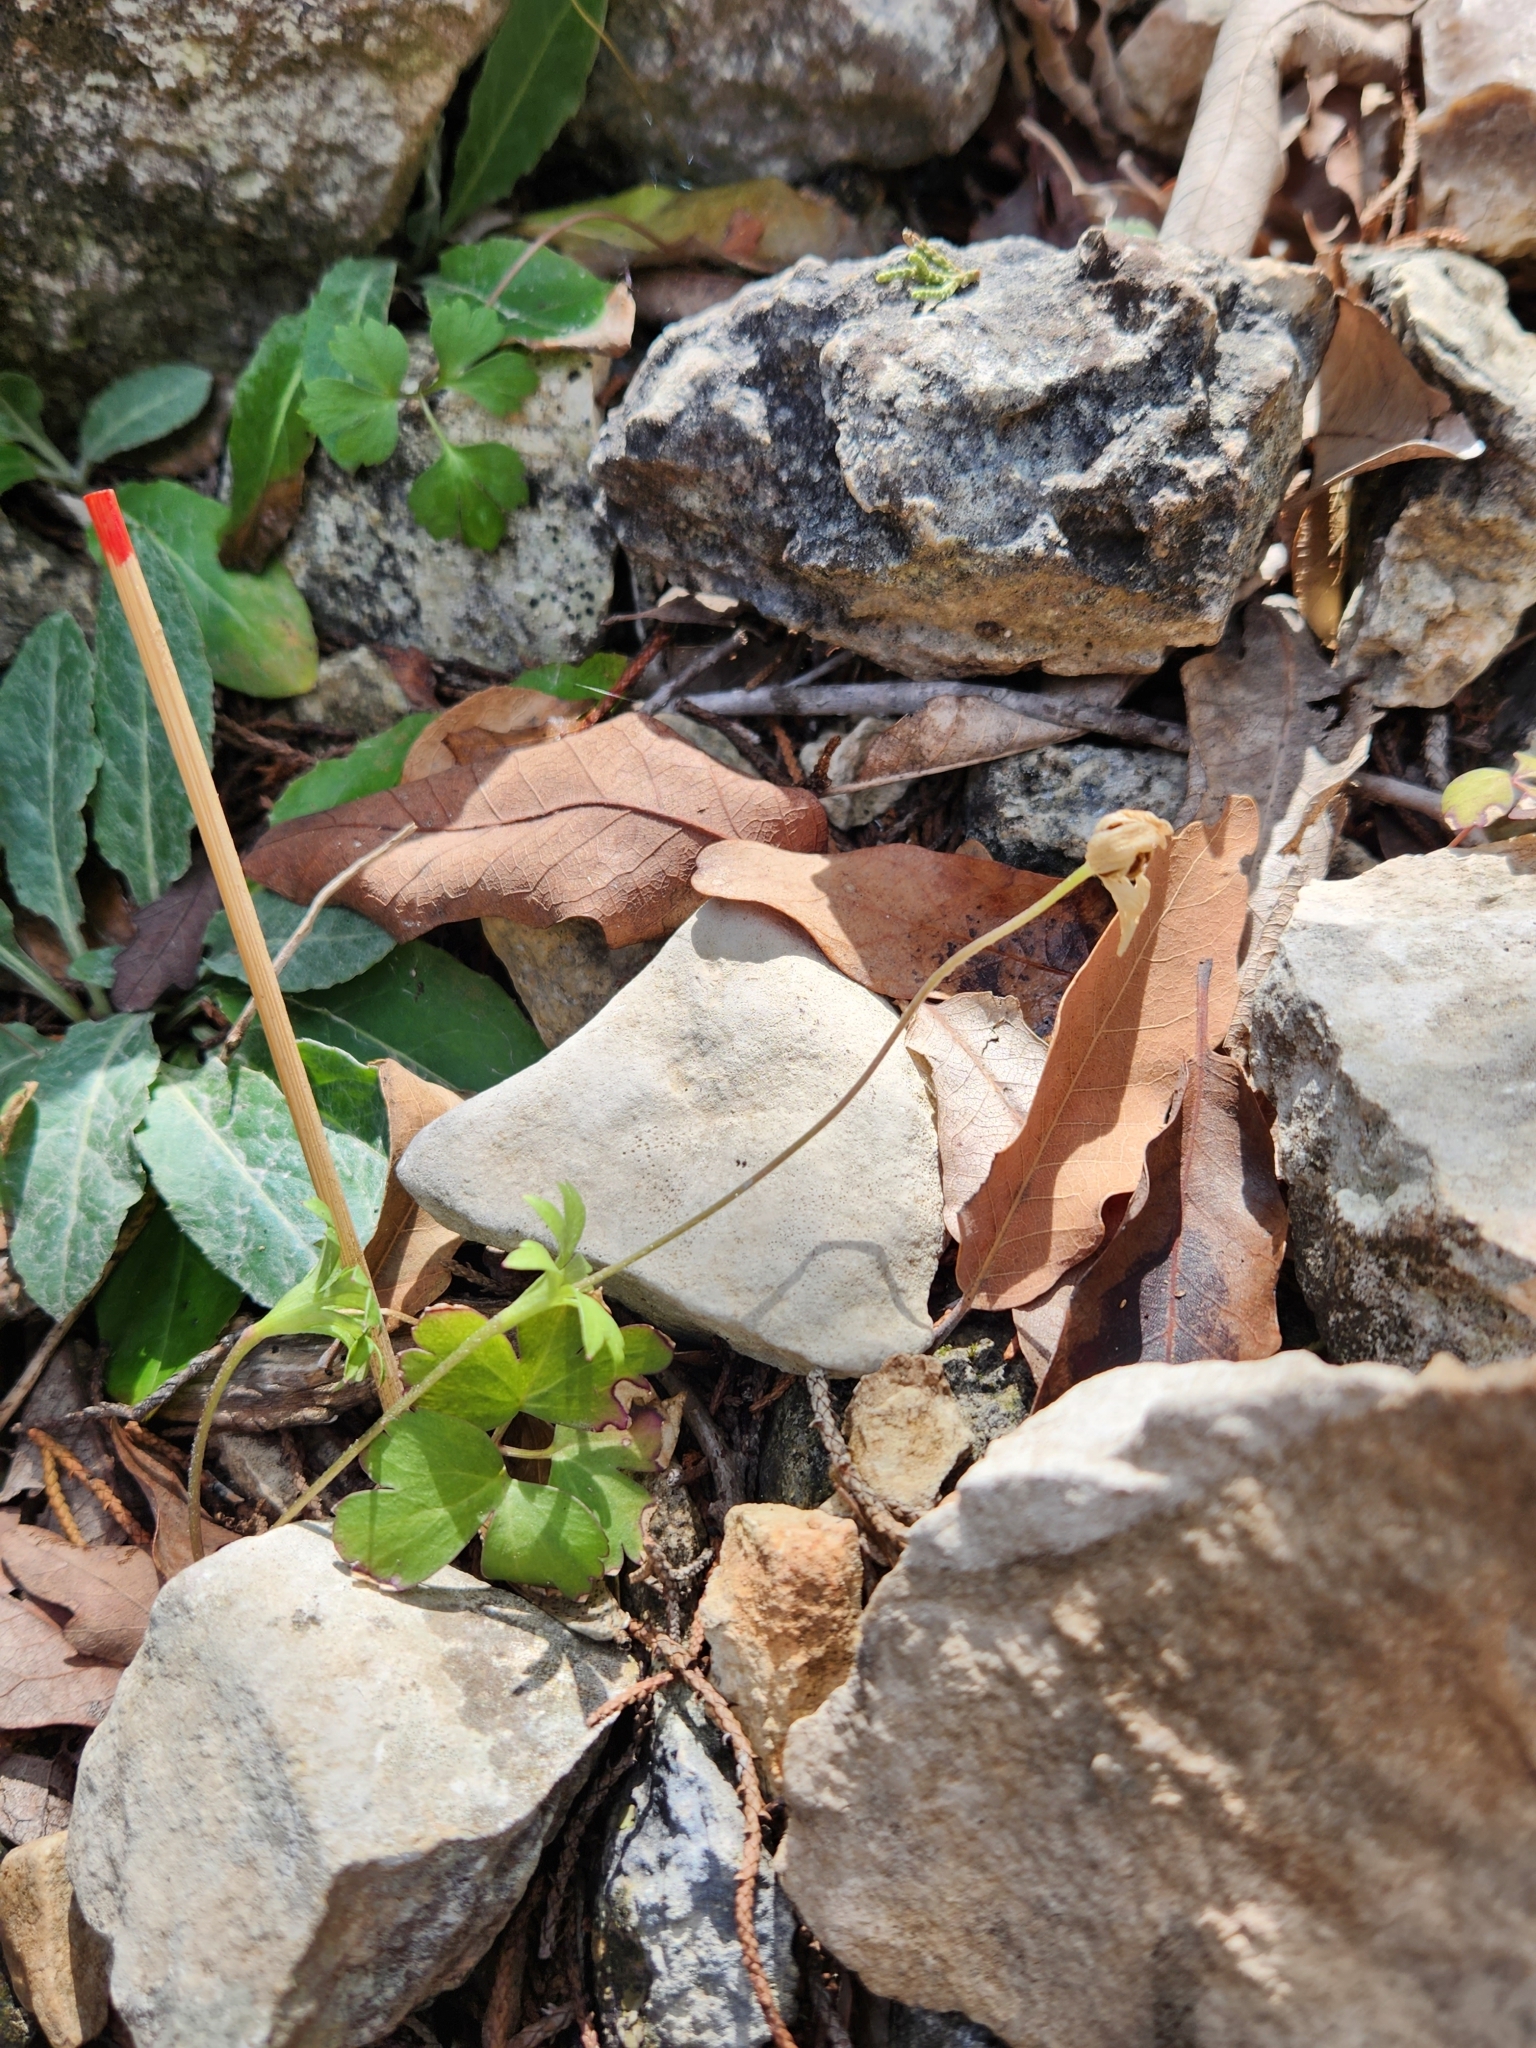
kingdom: Plantae
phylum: Tracheophyta
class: Magnoliopsida
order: Ranunculales
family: Ranunculaceae
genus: Anemone
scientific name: Anemone edwardsiana
